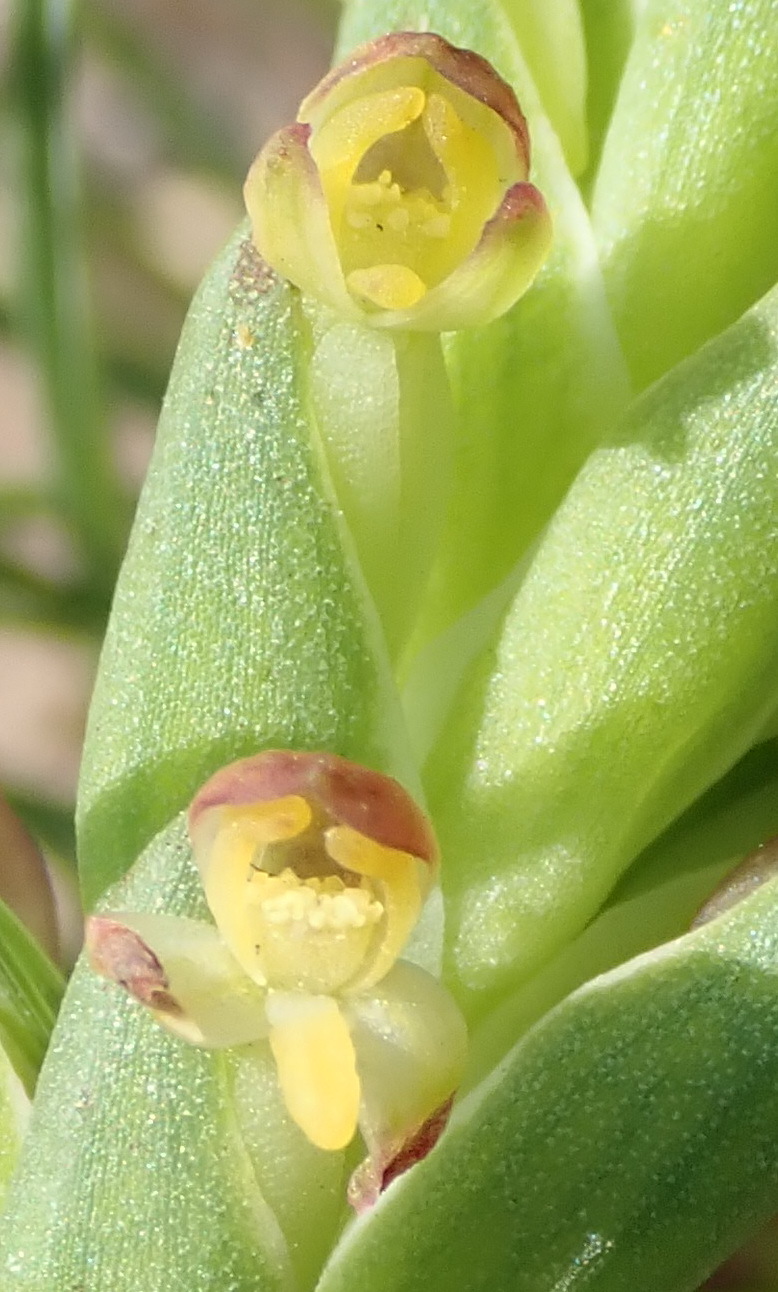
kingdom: Plantae
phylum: Tracheophyta
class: Liliopsida
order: Asparagales
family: Orchidaceae
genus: Disa
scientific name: Disa bracteata
